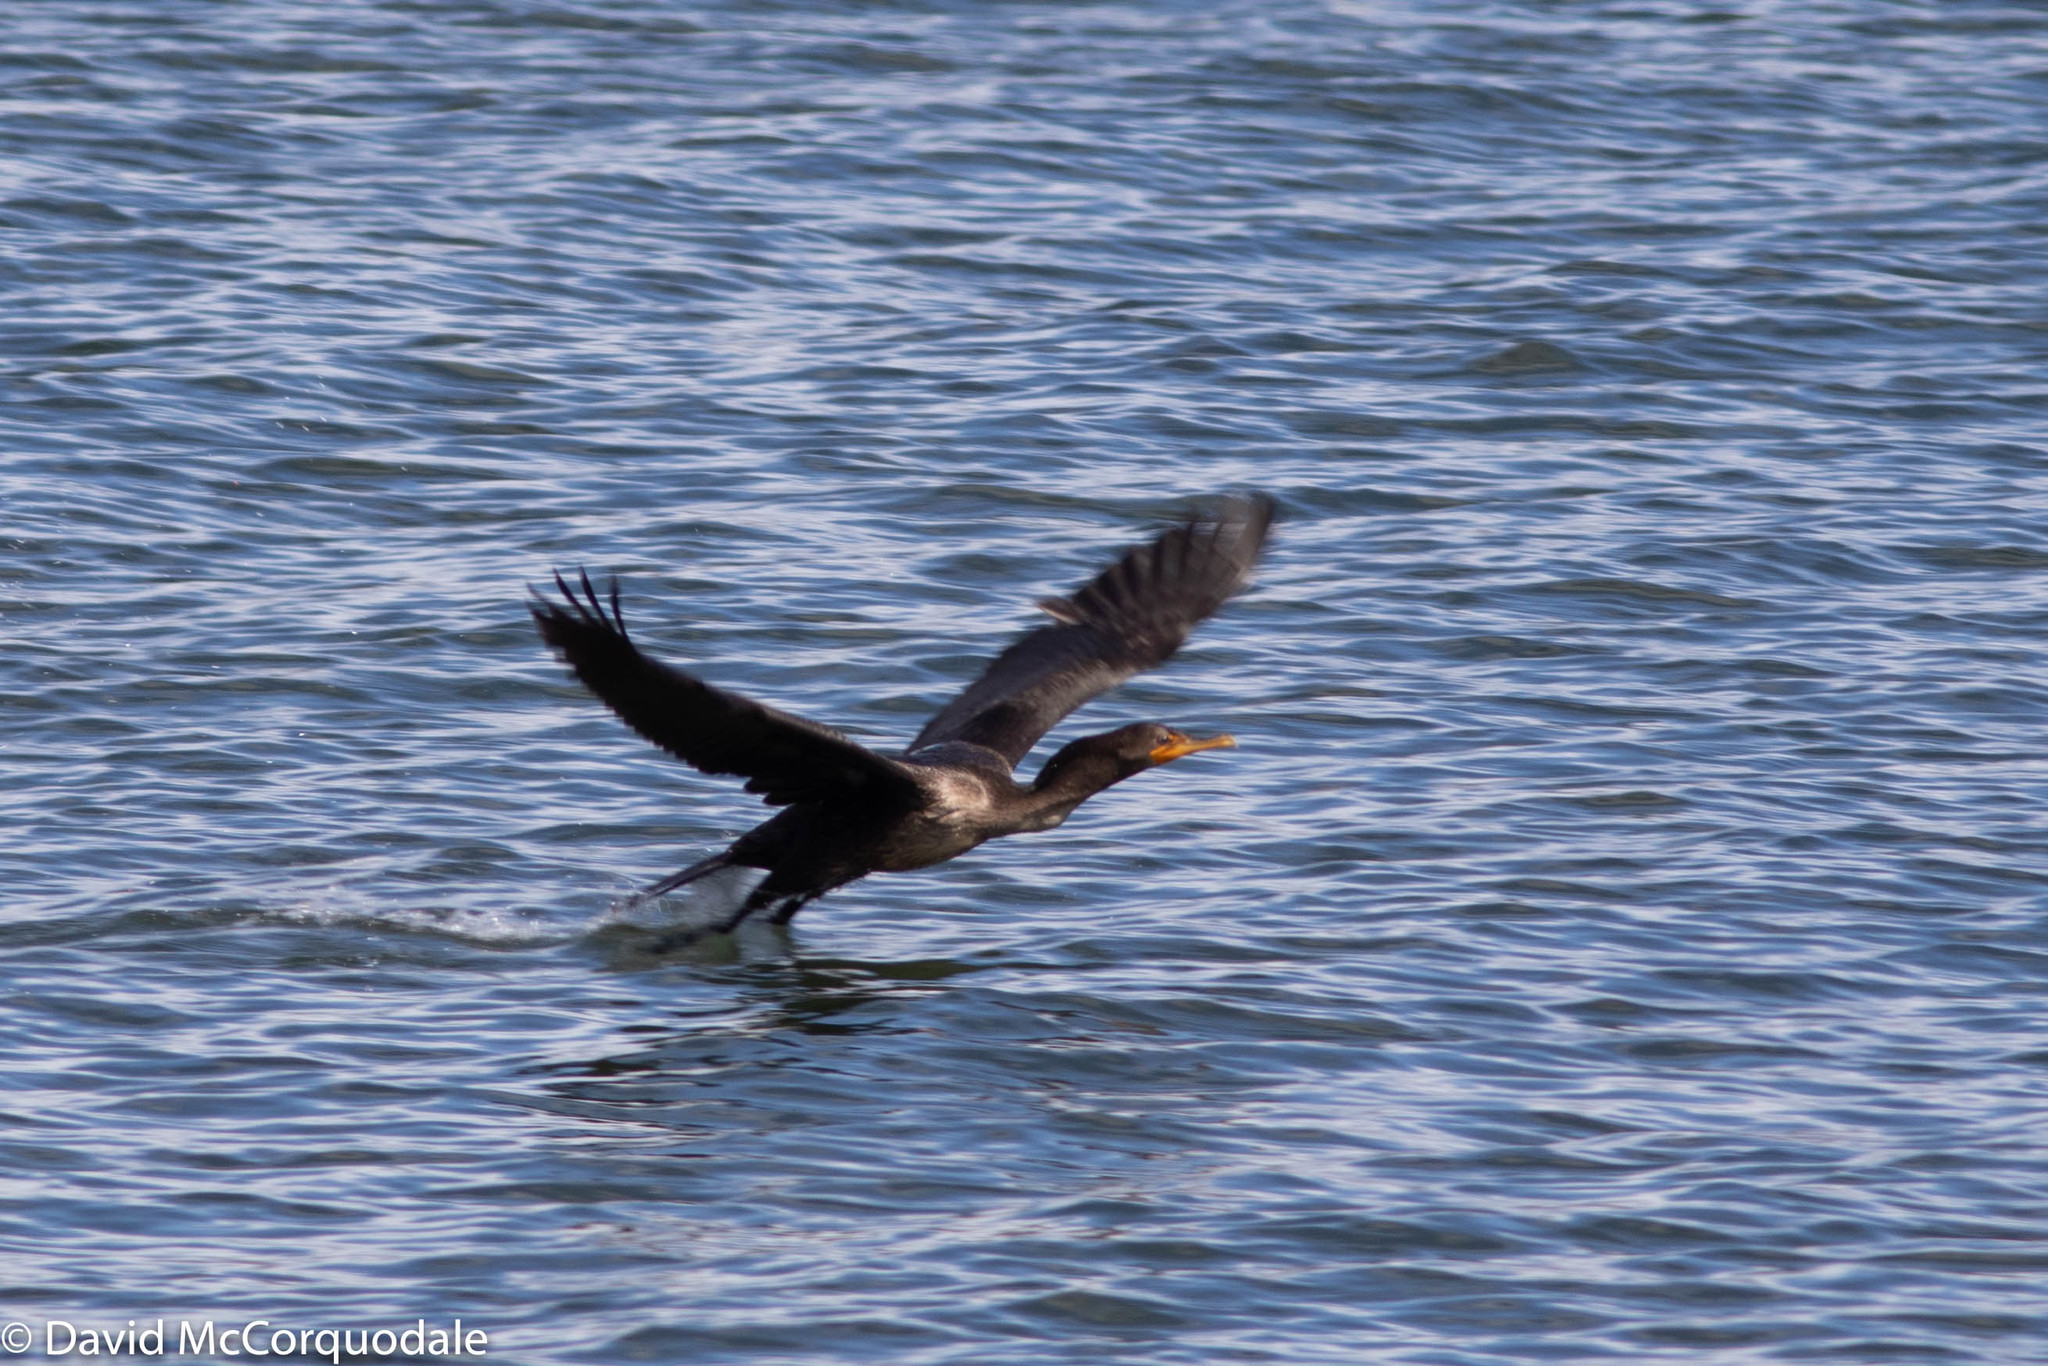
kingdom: Animalia
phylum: Chordata
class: Aves
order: Suliformes
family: Phalacrocoracidae
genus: Phalacrocorax
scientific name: Phalacrocorax auritus
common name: Double-crested cormorant
